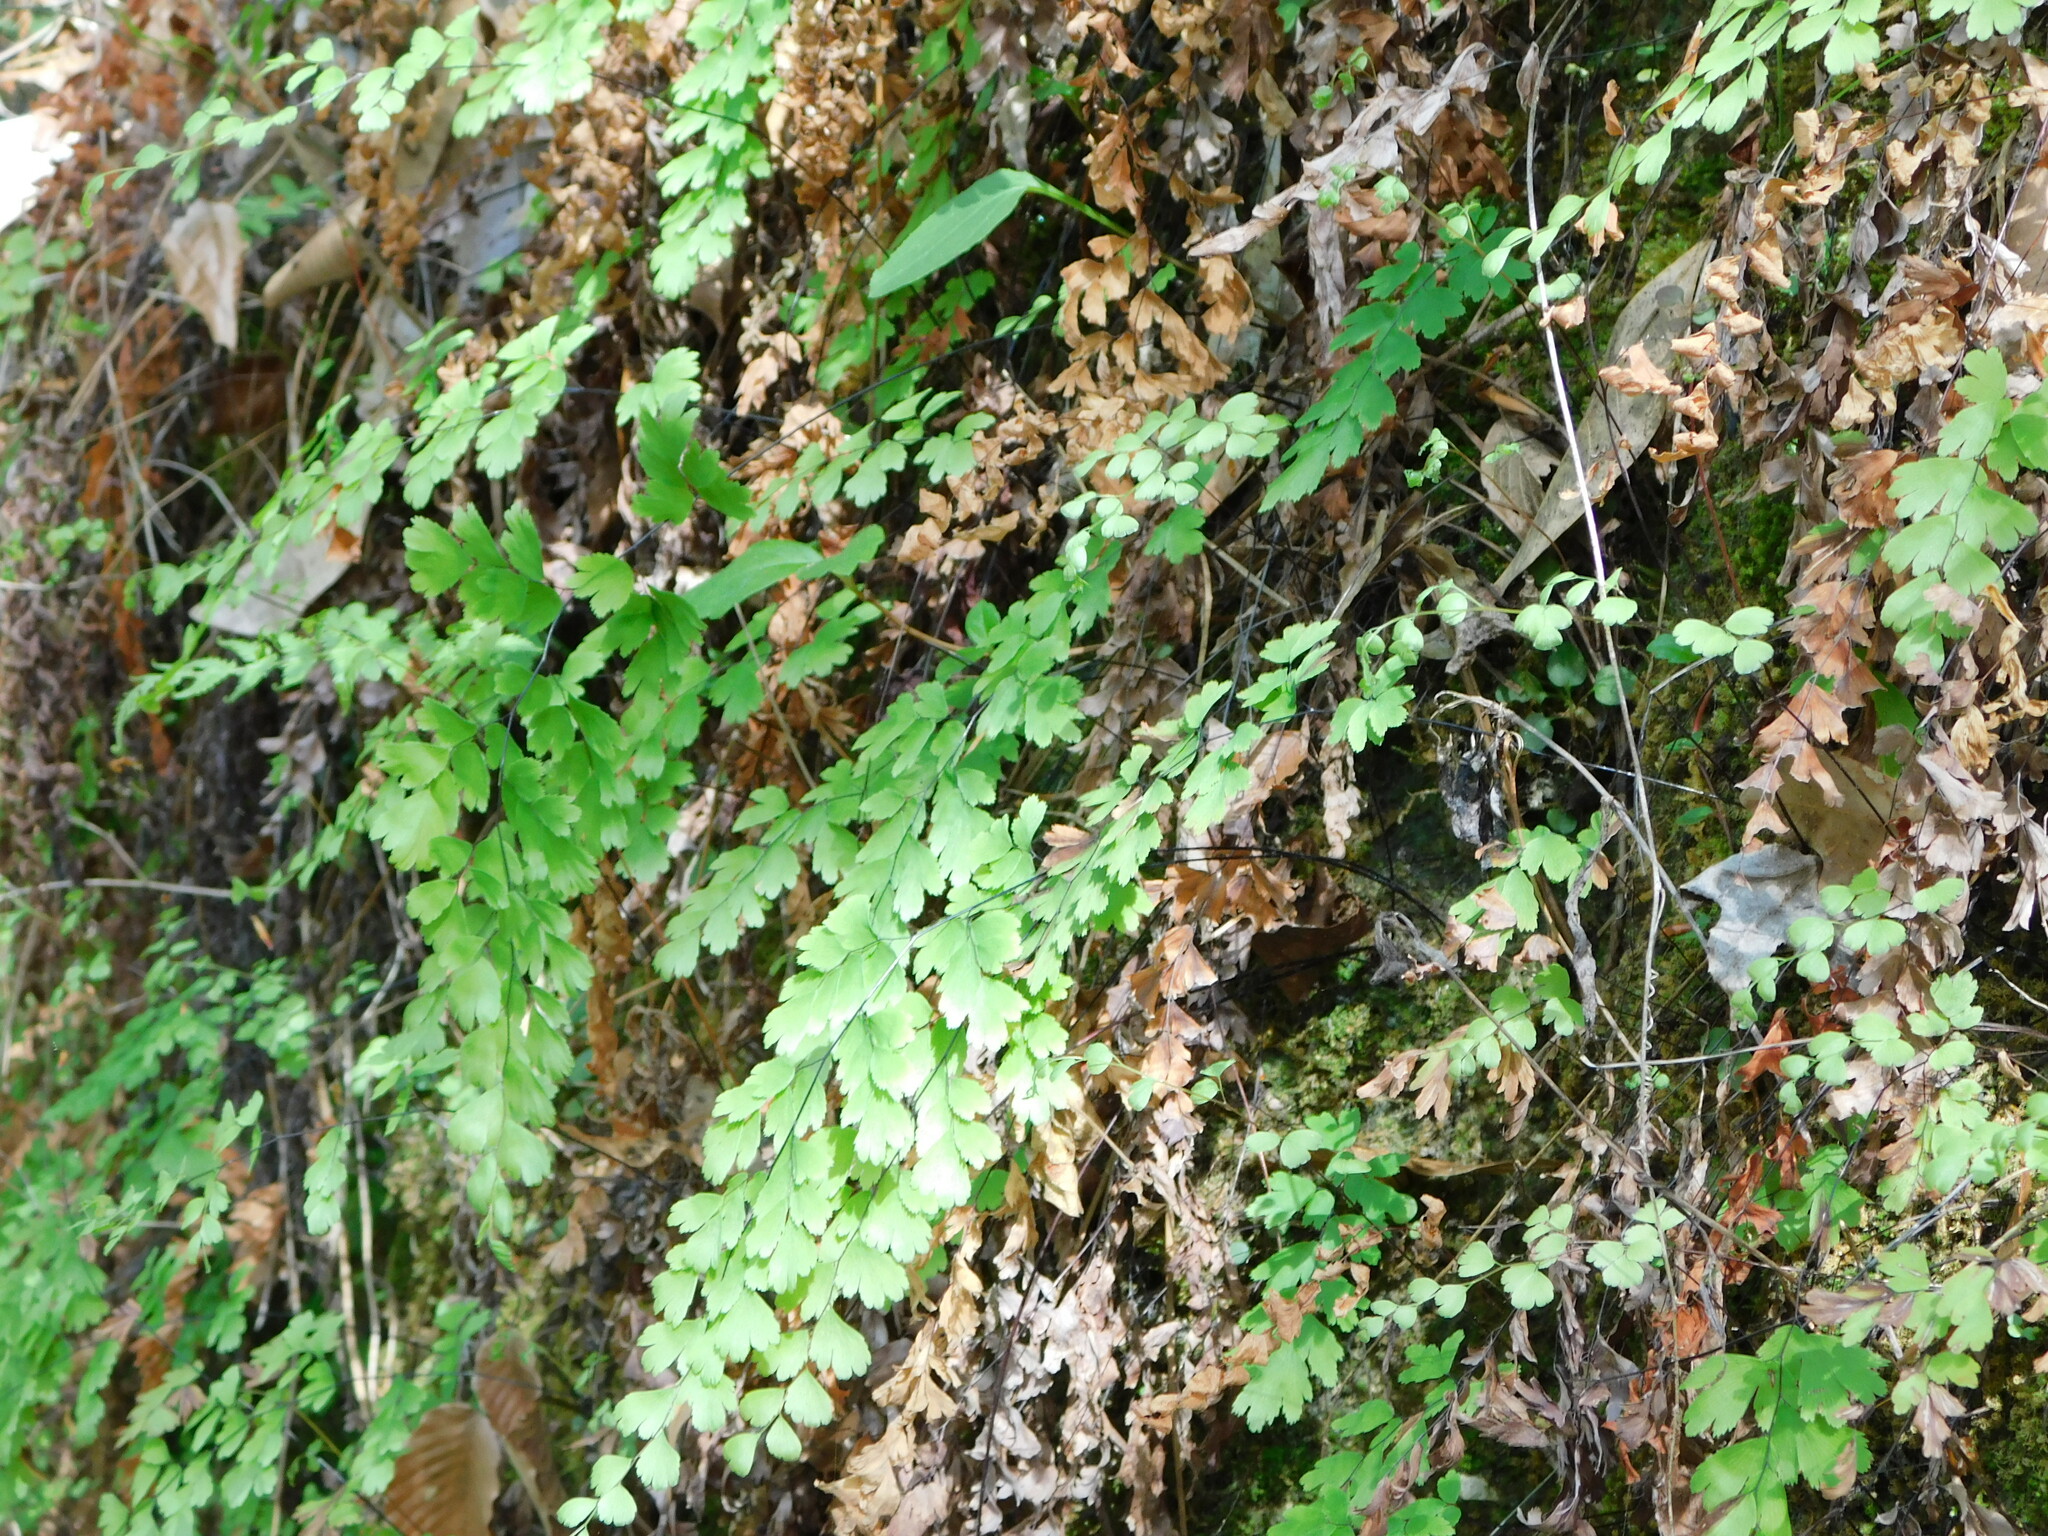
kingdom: Plantae
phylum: Tracheophyta
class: Polypodiopsida
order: Polypodiales
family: Pteridaceae
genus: Adiantum
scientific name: Adiantum capillus-veneris
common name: Maidenhair fern
